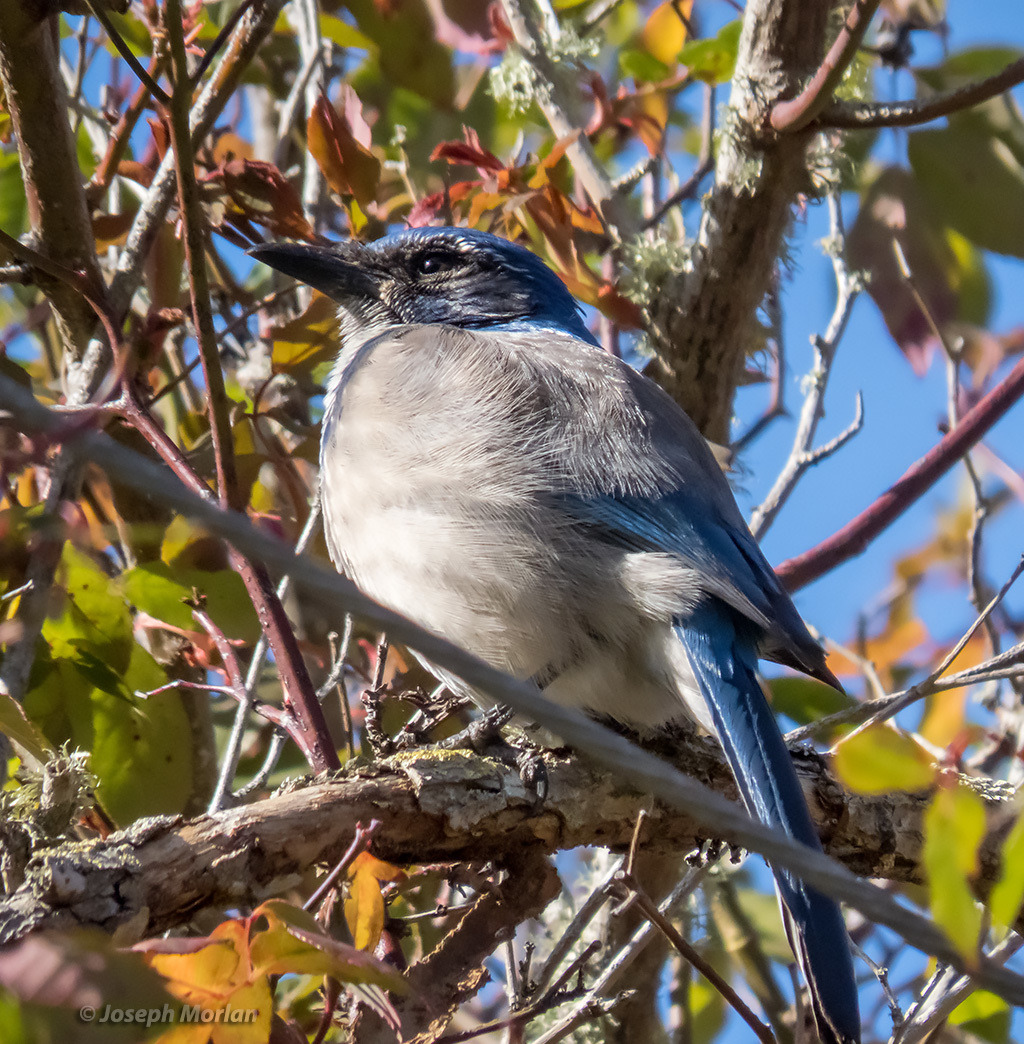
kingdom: Animalia
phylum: Chordata
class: Aves
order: Passeriformes
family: Corvidae
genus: Aphelocoma
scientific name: Aphelocoma californica
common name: California scrub-jay
